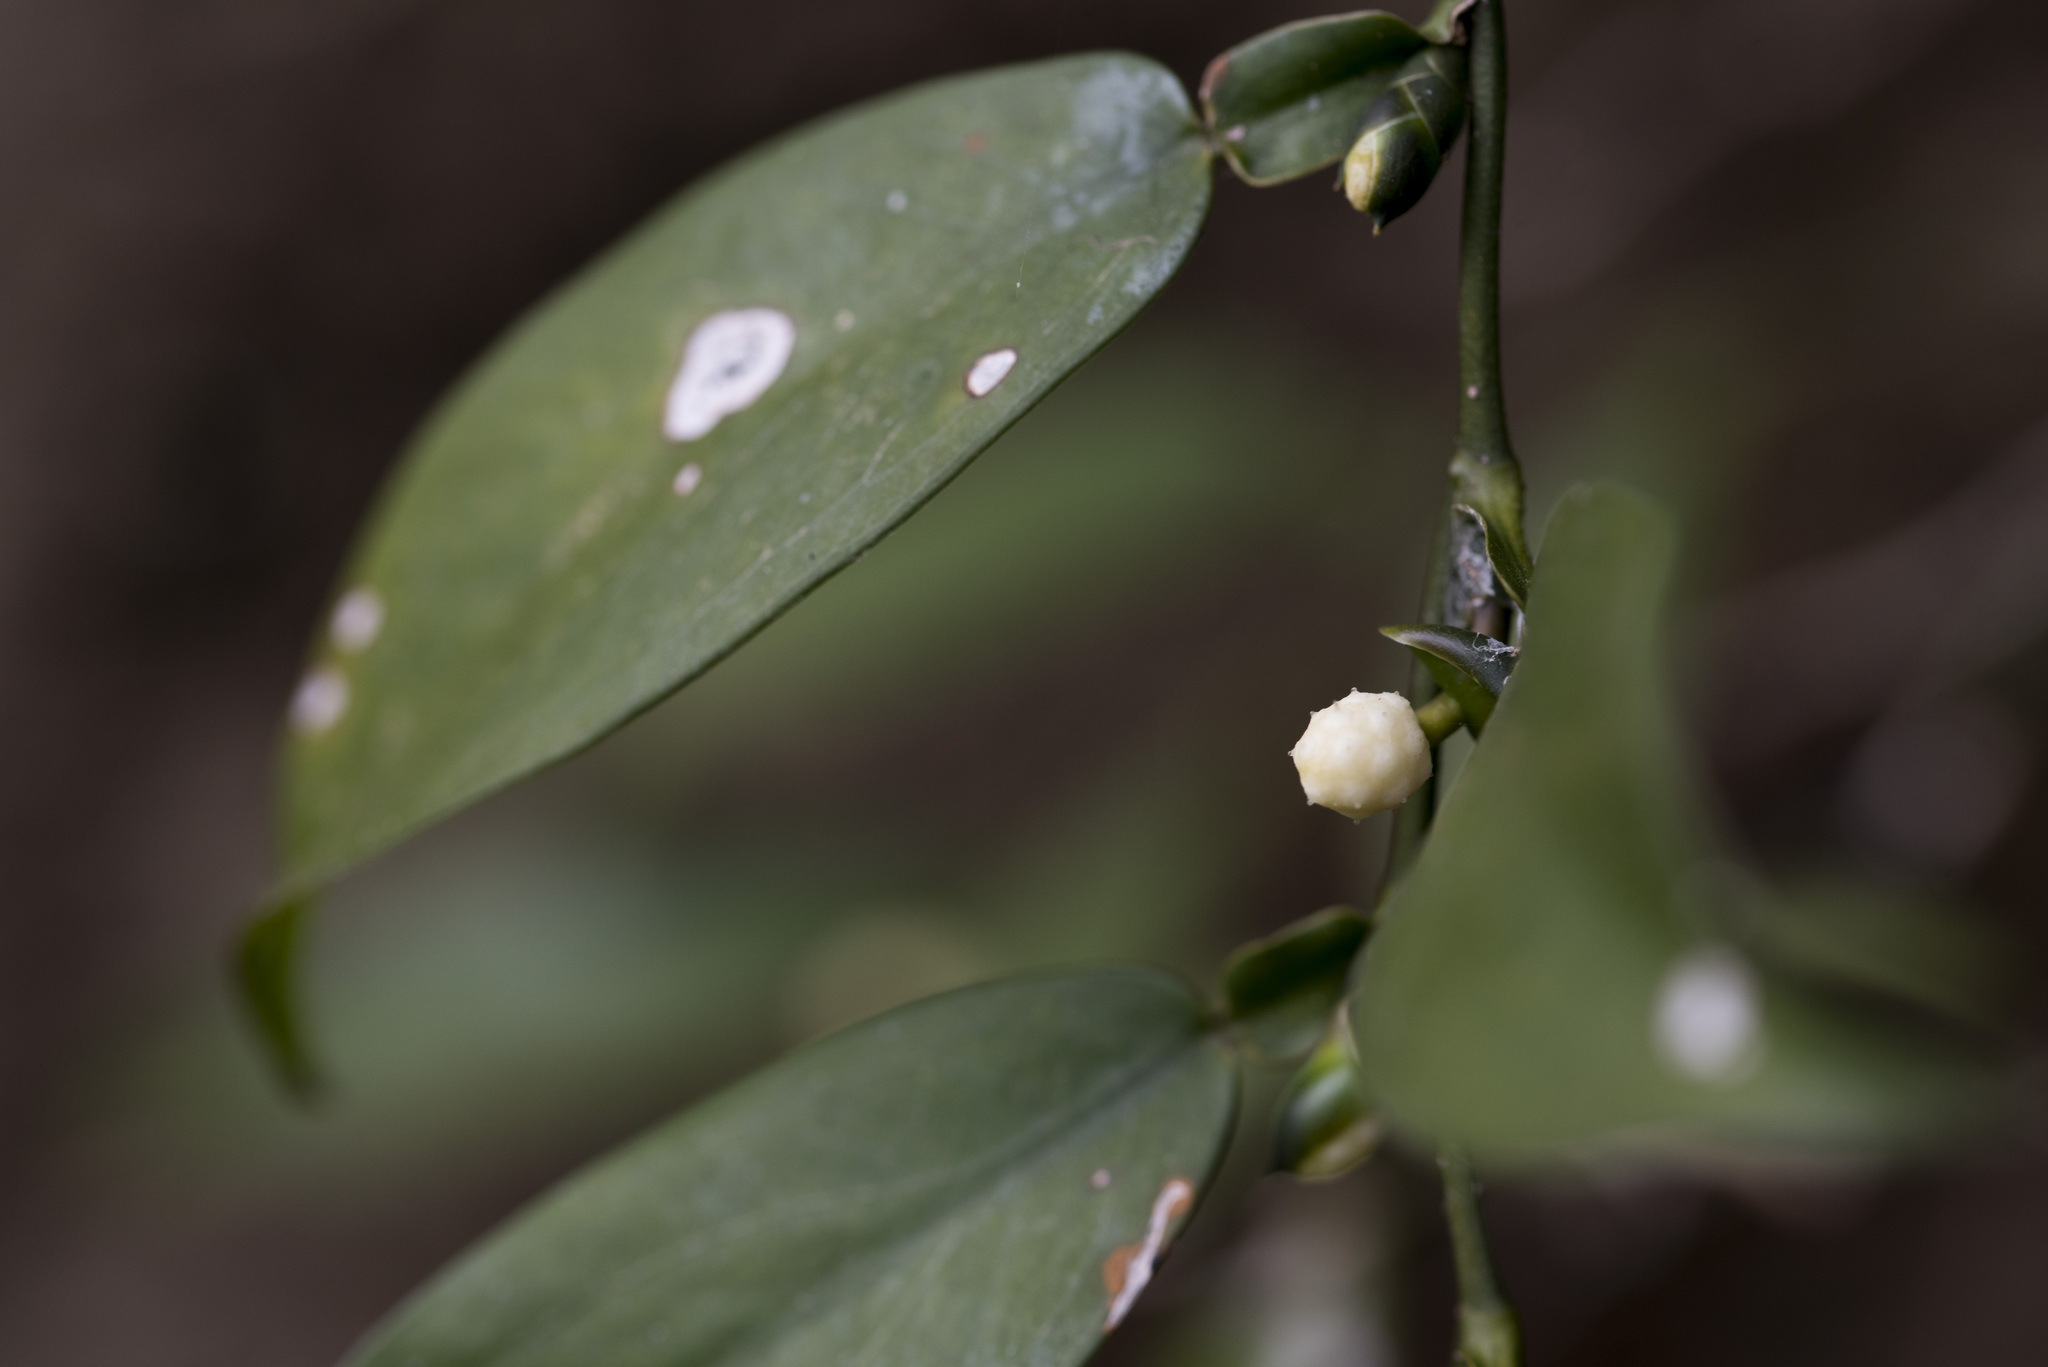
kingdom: Plantae
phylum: Tracheophyta
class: Liliopsida
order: Alismatales
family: Araceae
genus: Pothos
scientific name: Pothos chinensis
